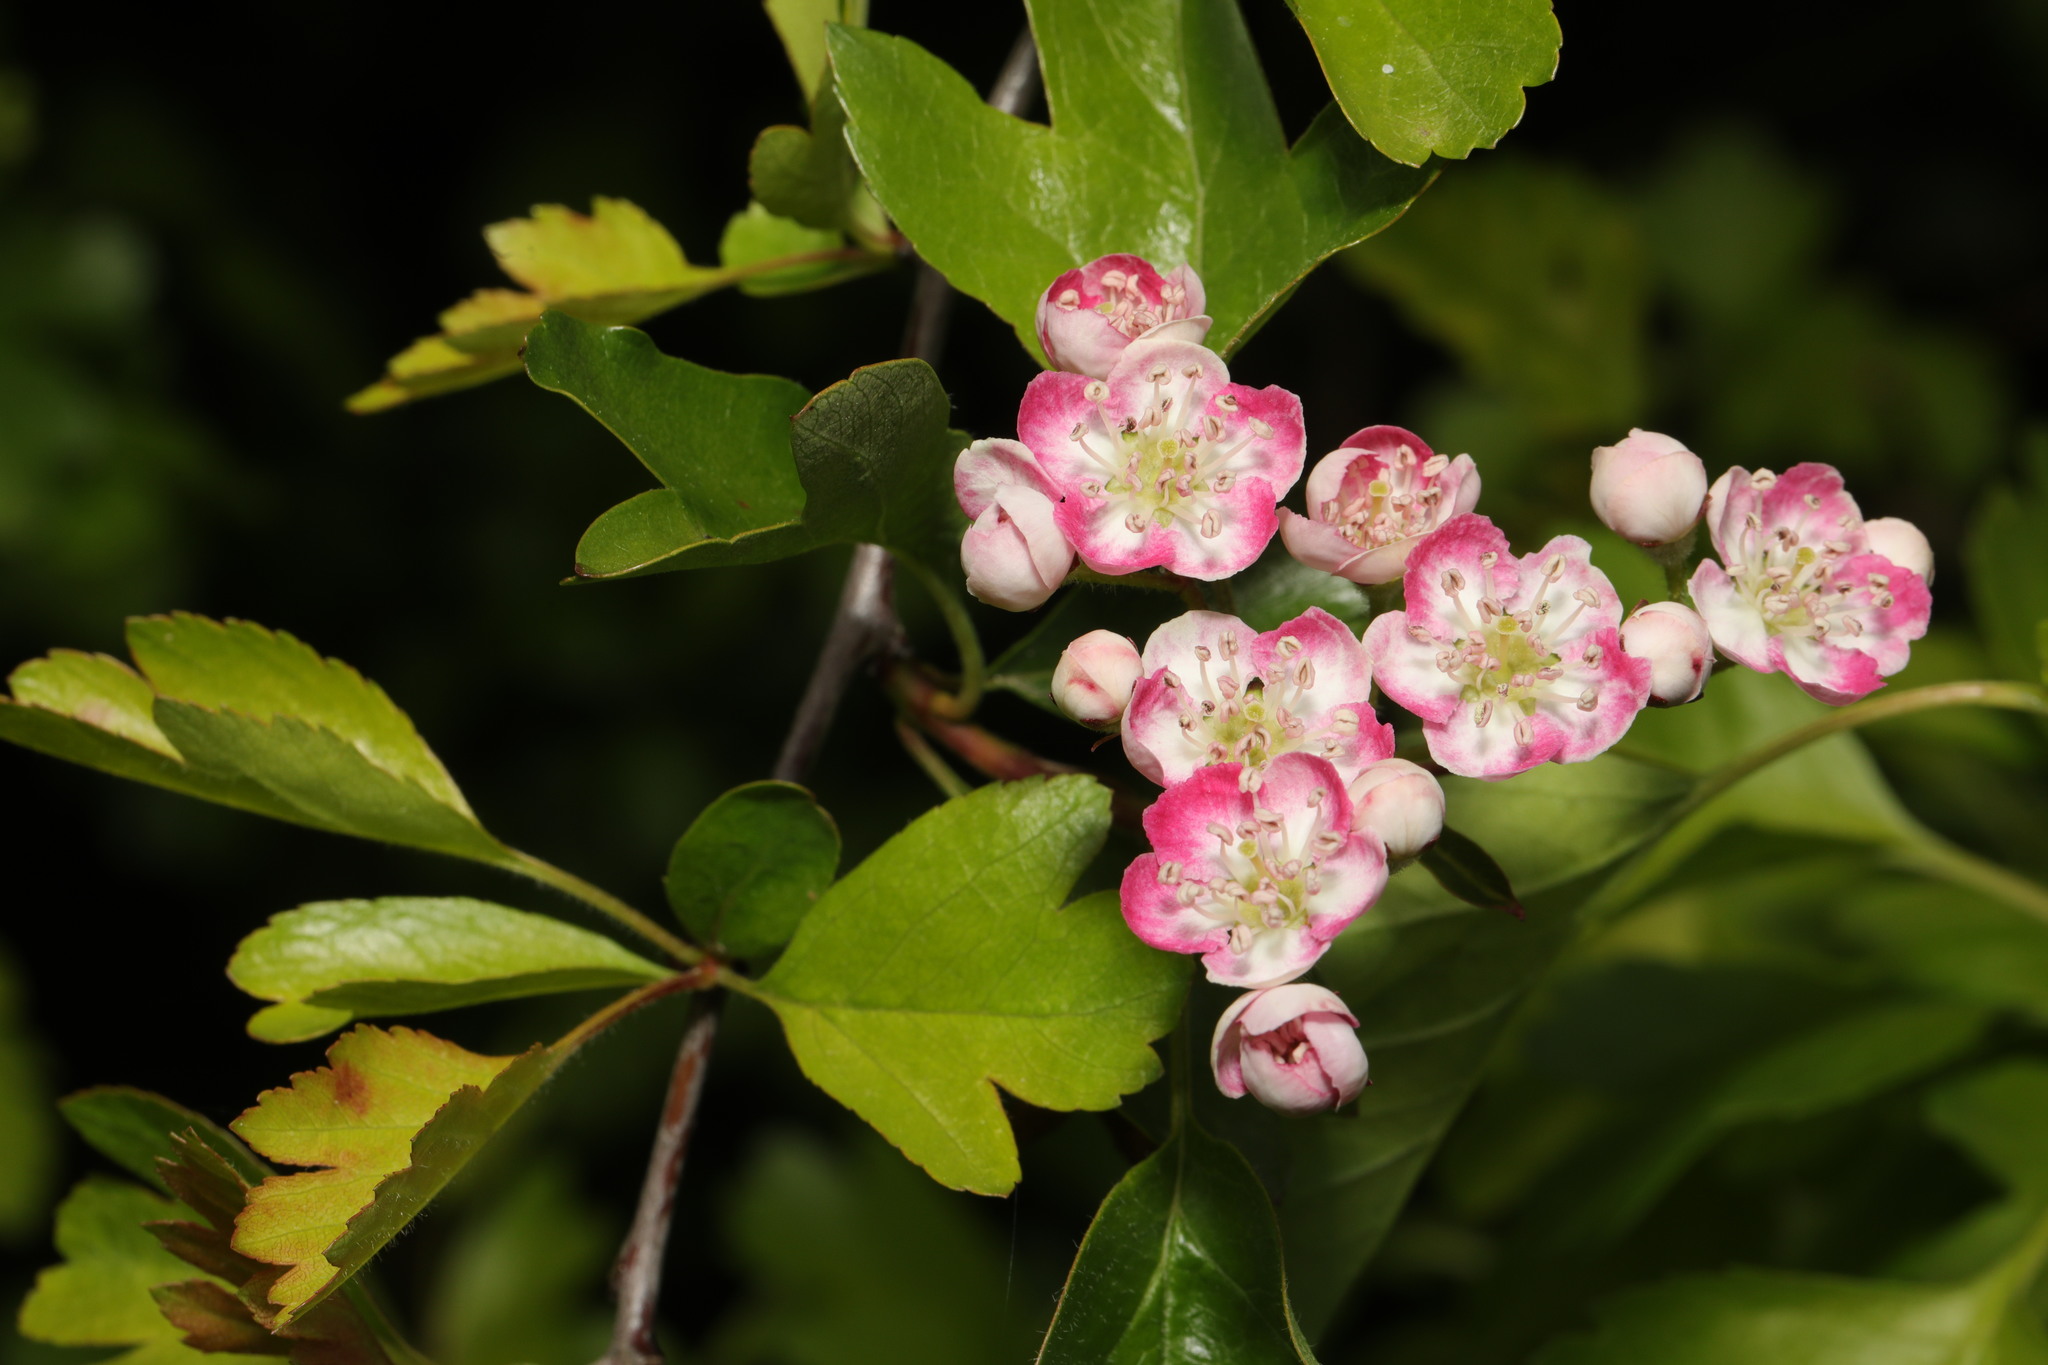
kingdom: Plantae
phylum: Tracheophyta
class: Magnoliopsida
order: Rosales
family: Rosaceae
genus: Crataegus
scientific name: Crataegus monogyna
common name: Hawthorn
